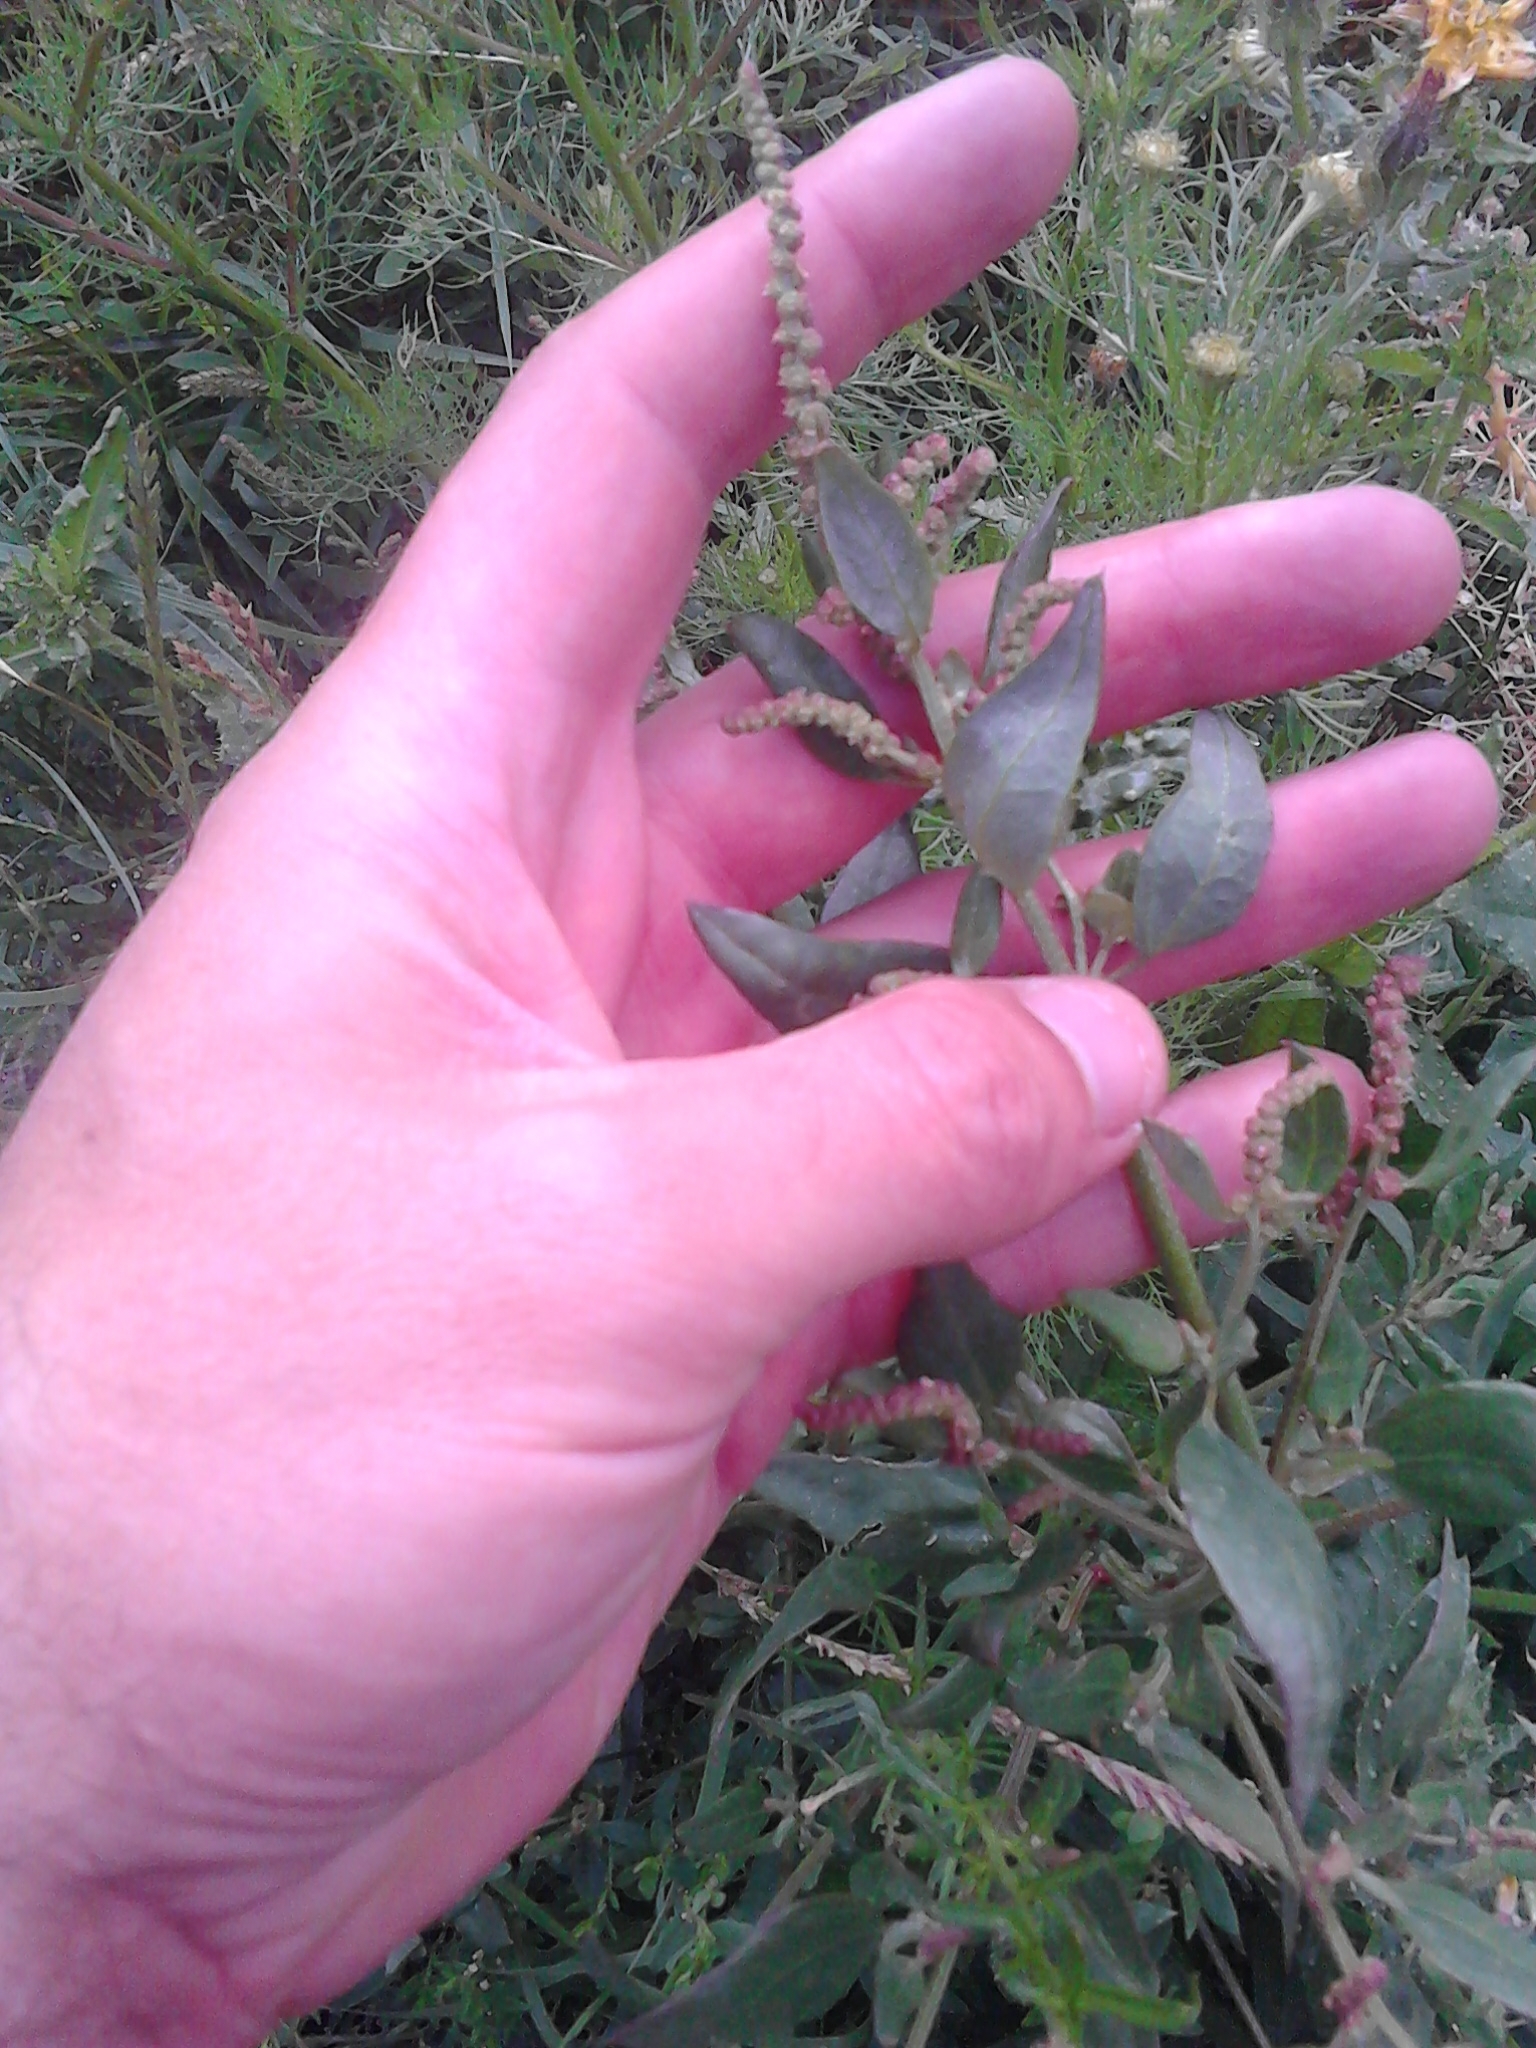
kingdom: Plantae
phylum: Tracheophyta
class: Magnoliopsida
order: Caryophyllales
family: Amaranthaceae
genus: Atriplex
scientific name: Atriplex prostrata
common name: Spear-leaved orache
